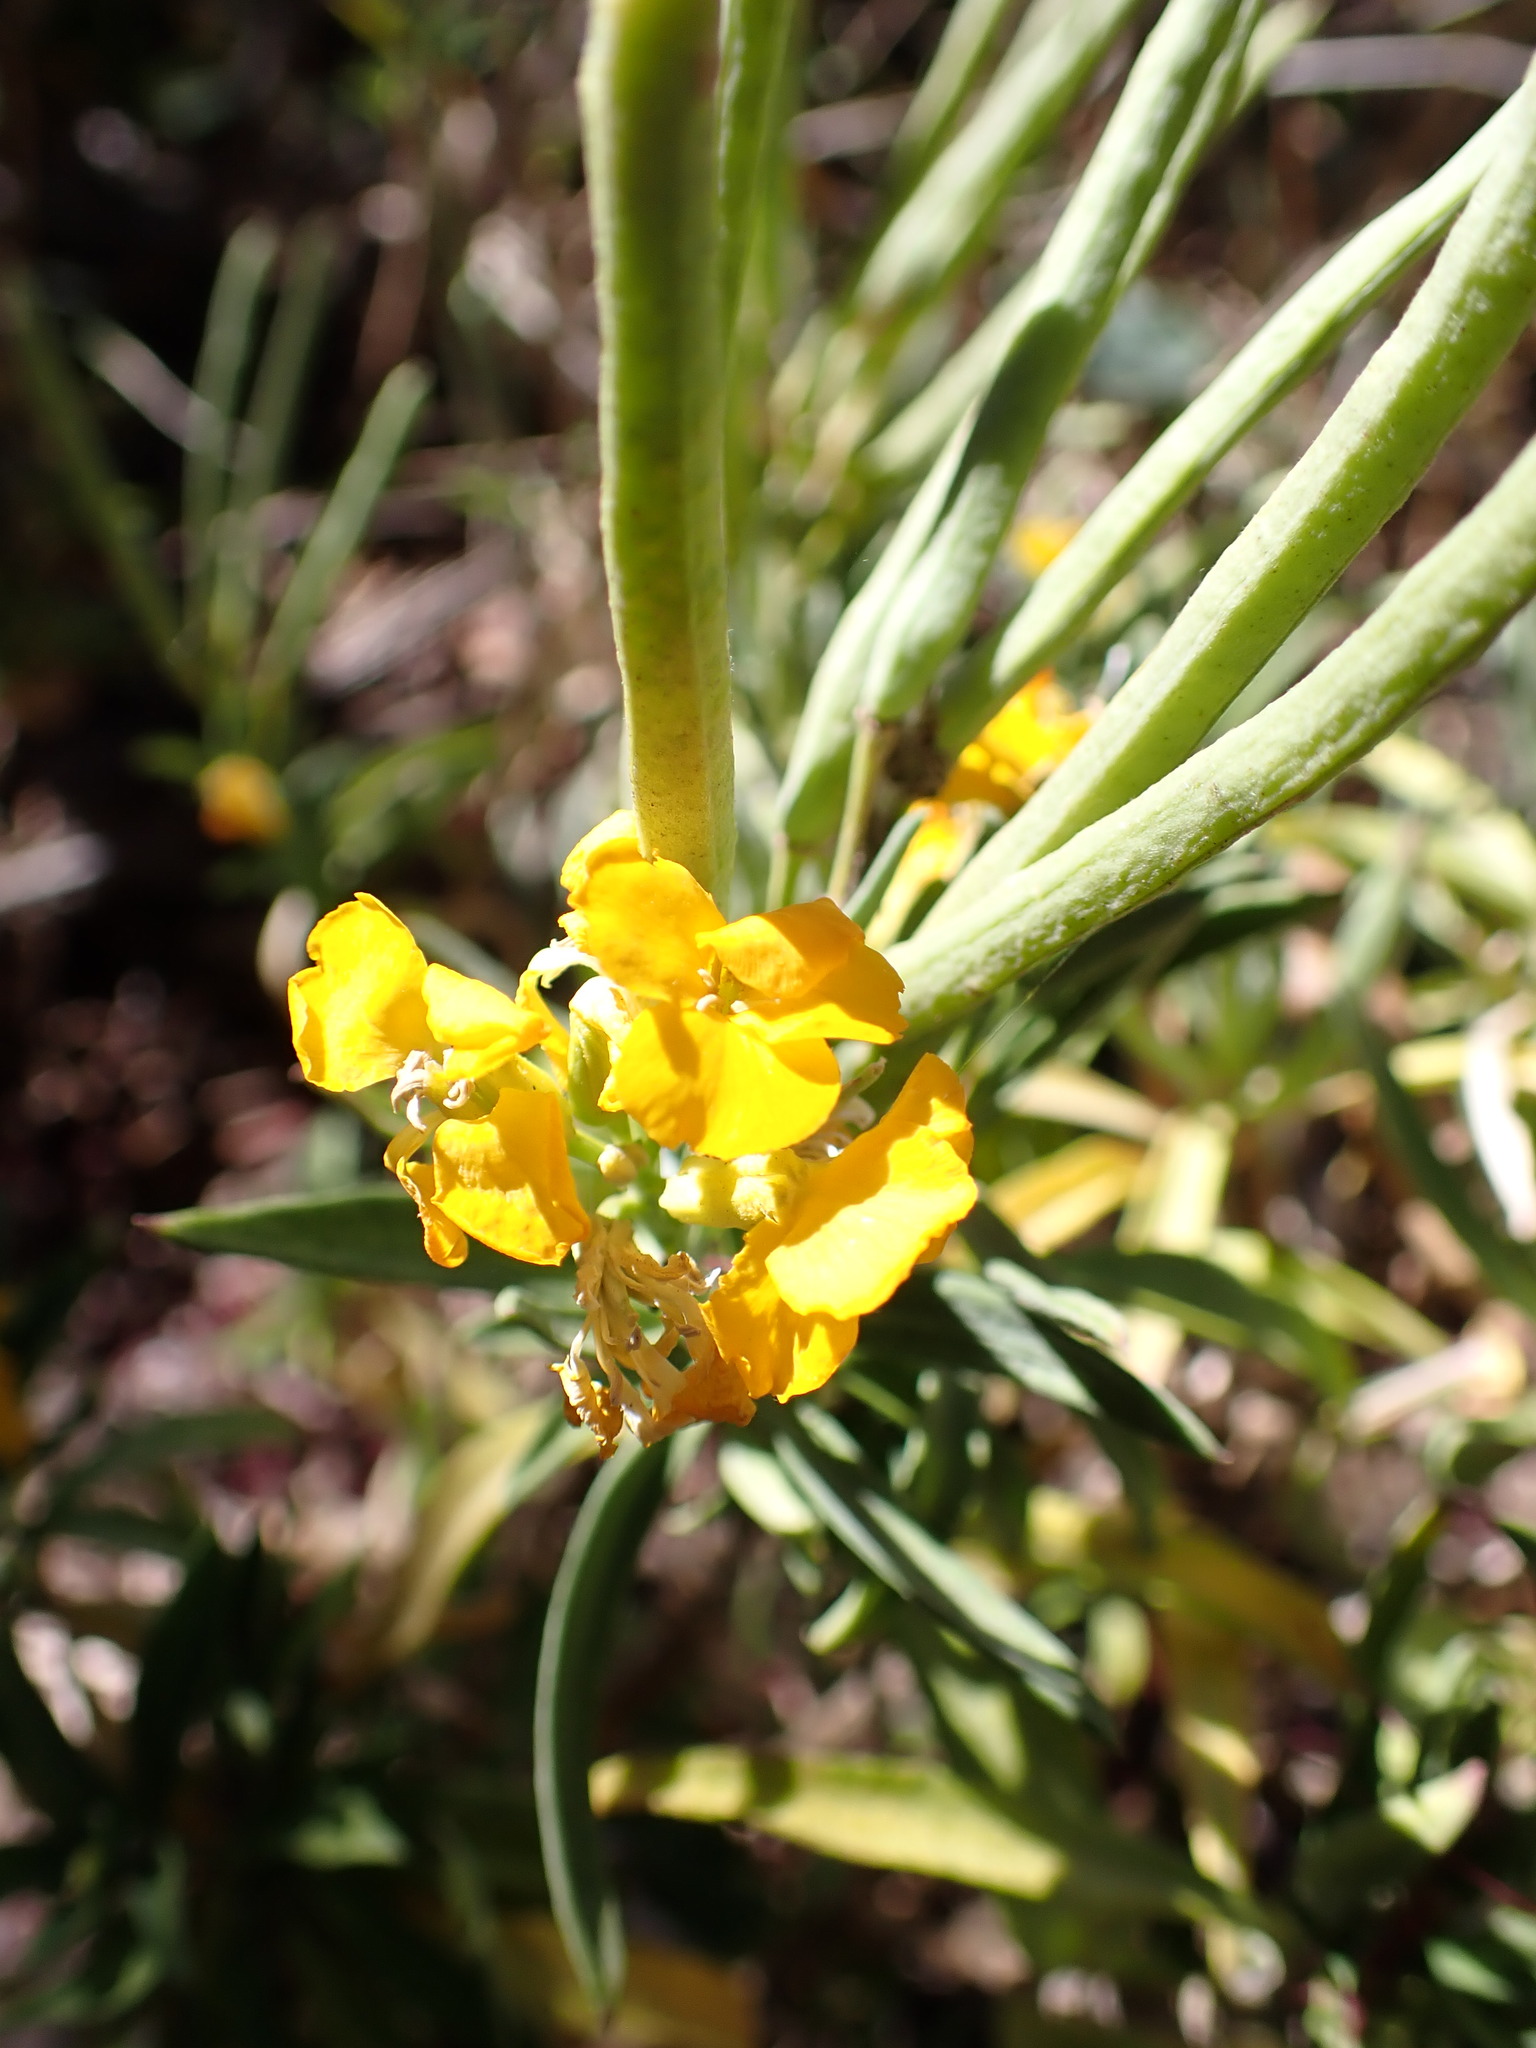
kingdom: Plantae
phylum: Tracheophyta
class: Magnoliopsida
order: Brassicales
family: Brassicaceae
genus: Erysimum
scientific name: Erysimum cheiri
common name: Wallflower
